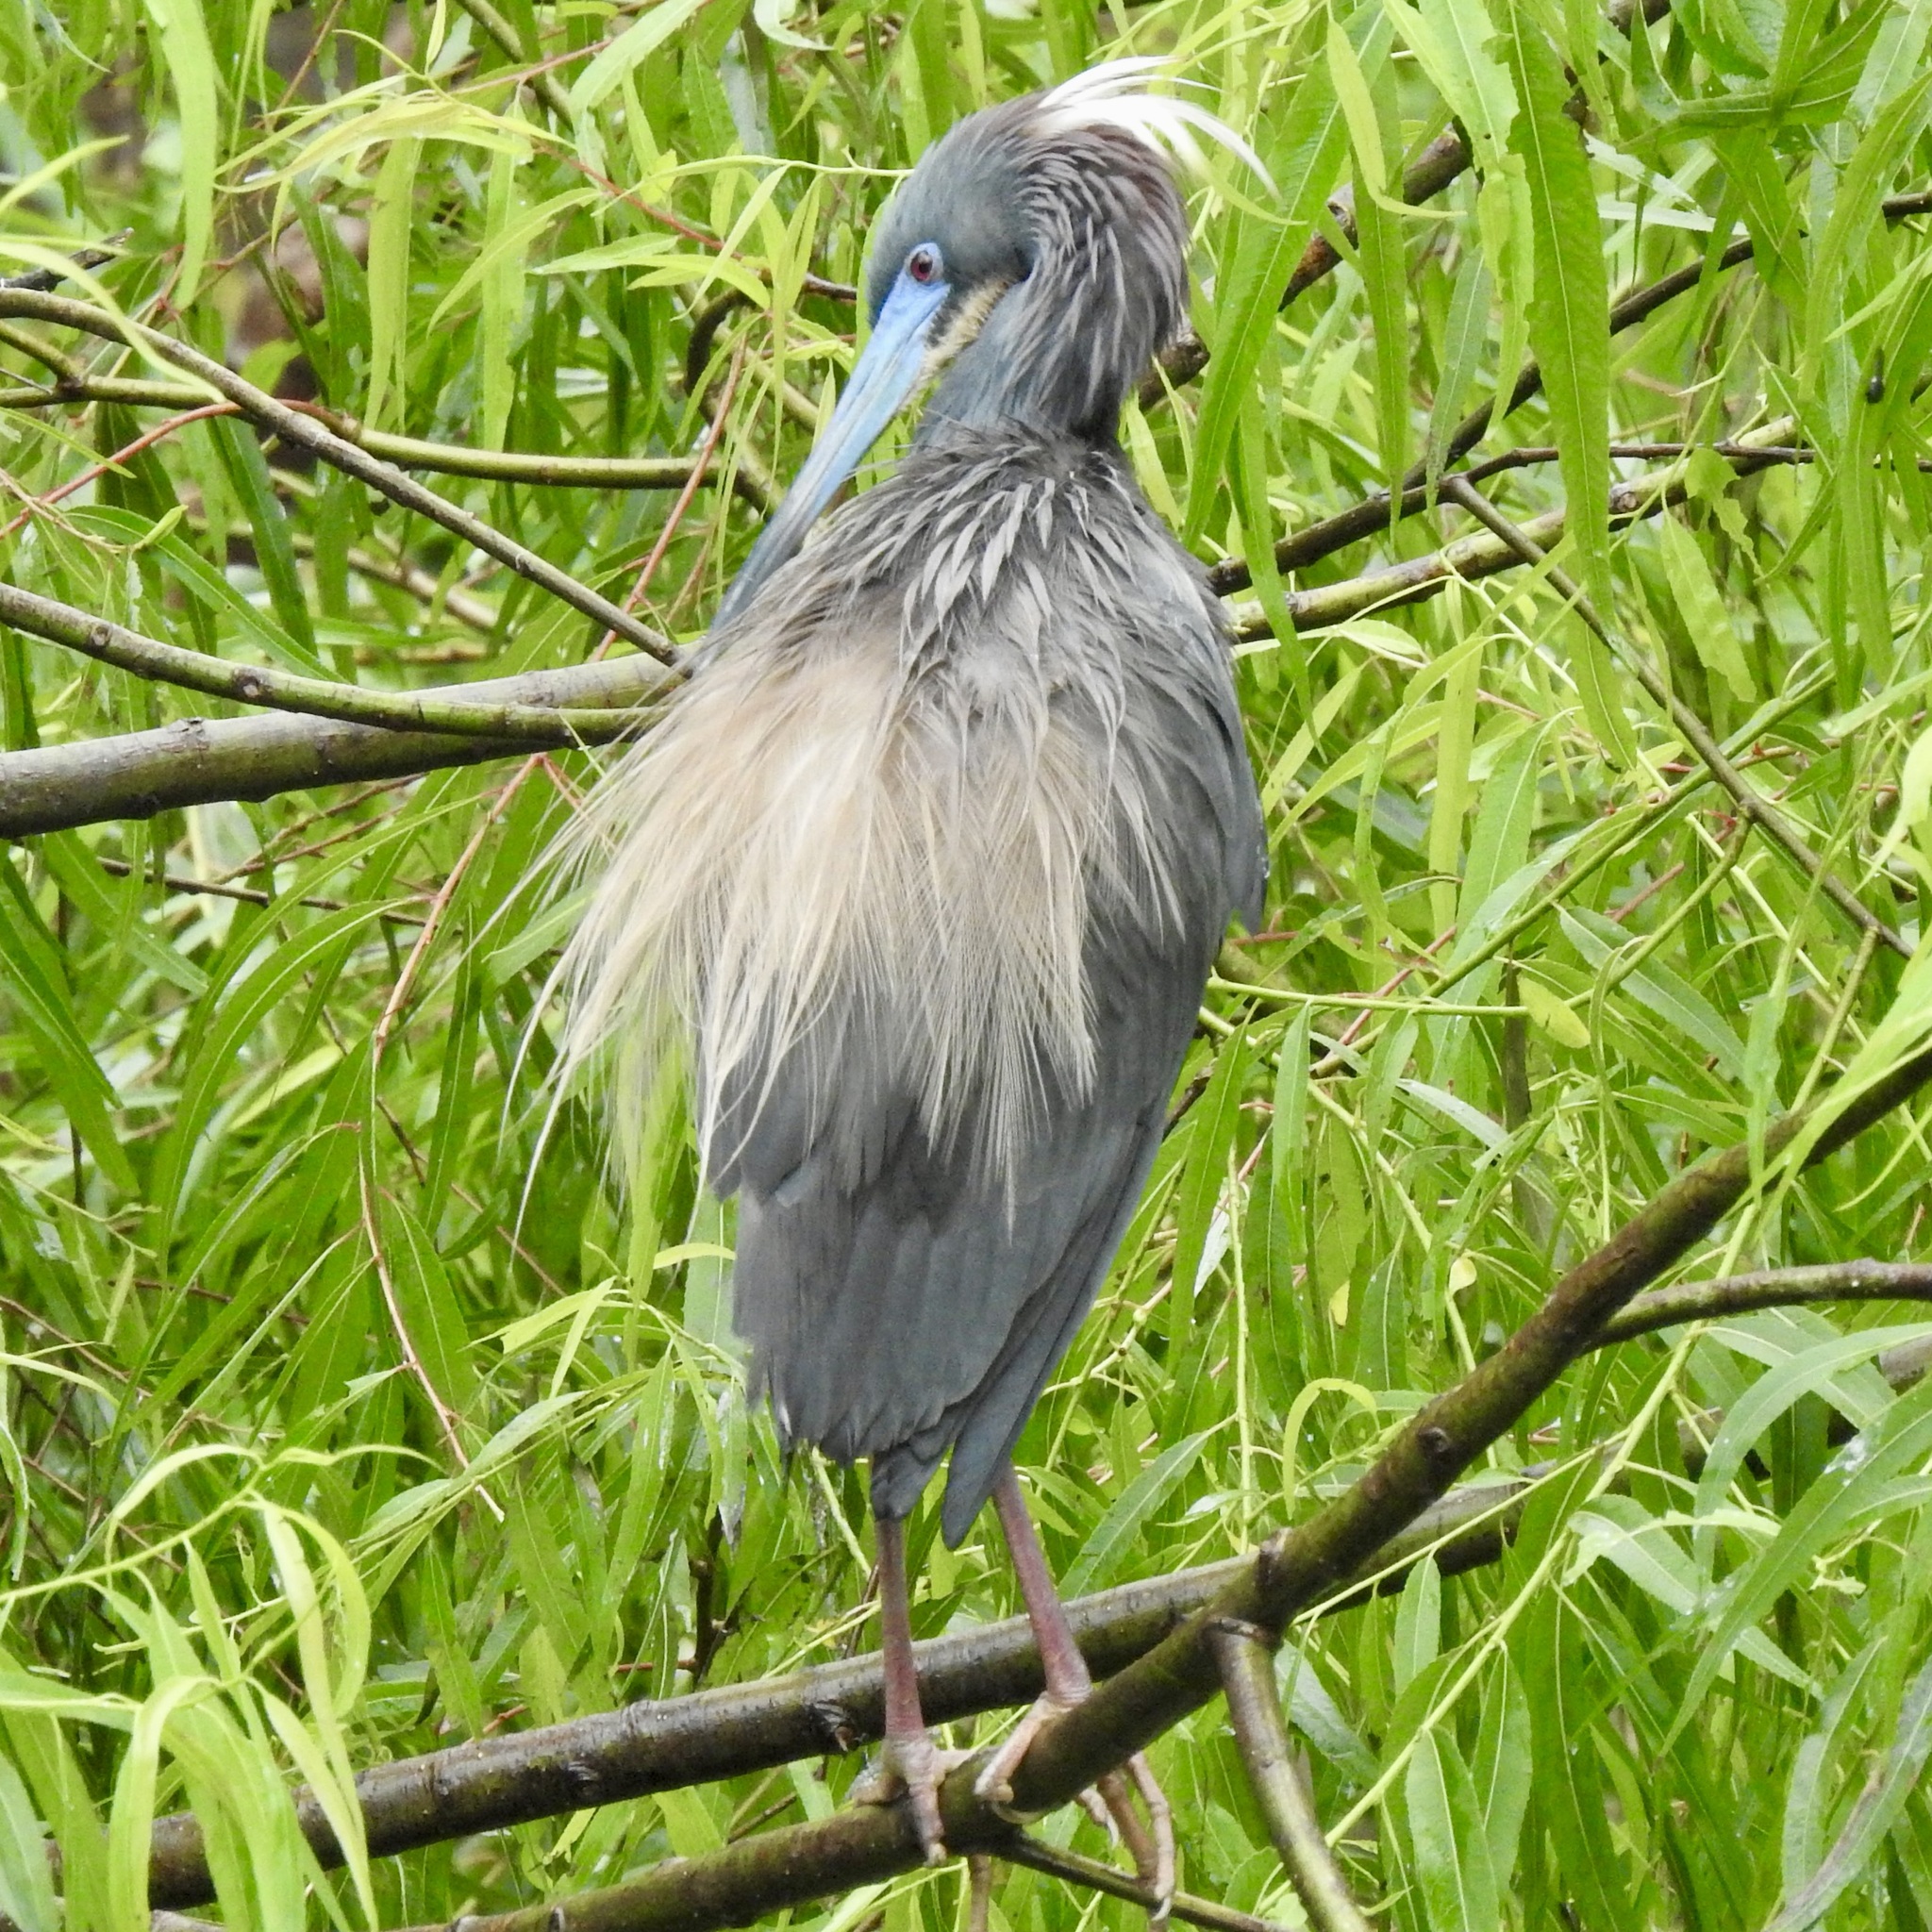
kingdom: Animalia
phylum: Chordata
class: Aves
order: Pelecaniformes
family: Ardeidae
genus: Egretta
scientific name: Egretta tricolor
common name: Tricolored heron
